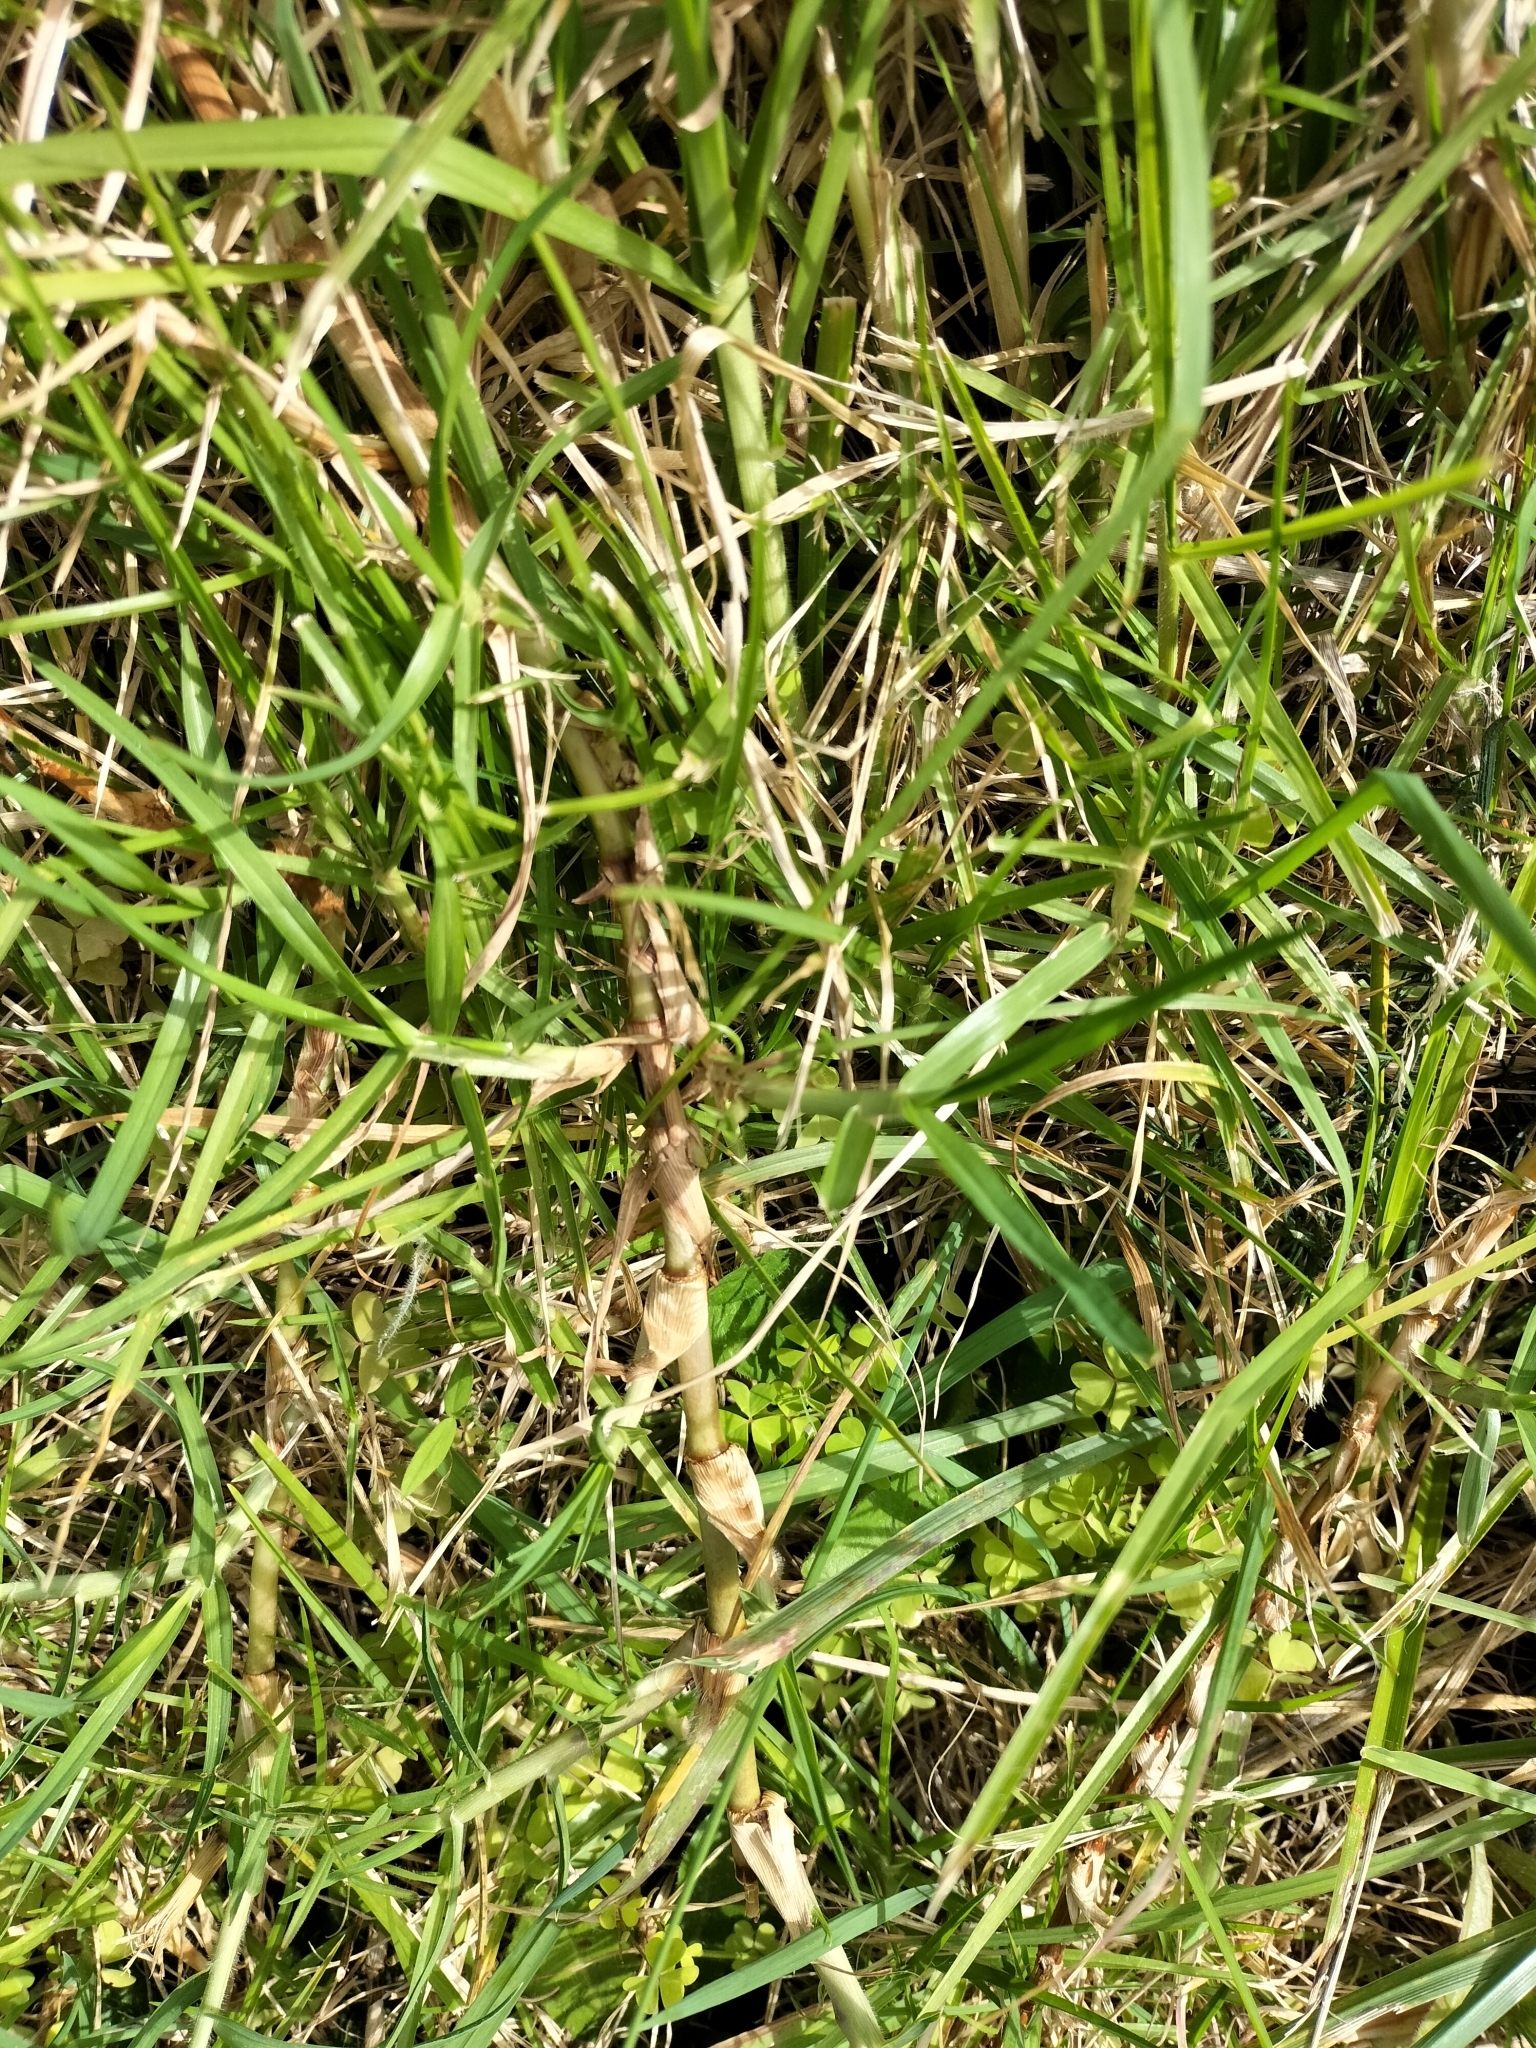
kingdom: Plantae
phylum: Tracheophyta
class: Liliopsida
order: Poales
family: Poaceae
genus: Cenchrus
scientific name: Cenchrus clandestinus
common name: Kikuyugrass
